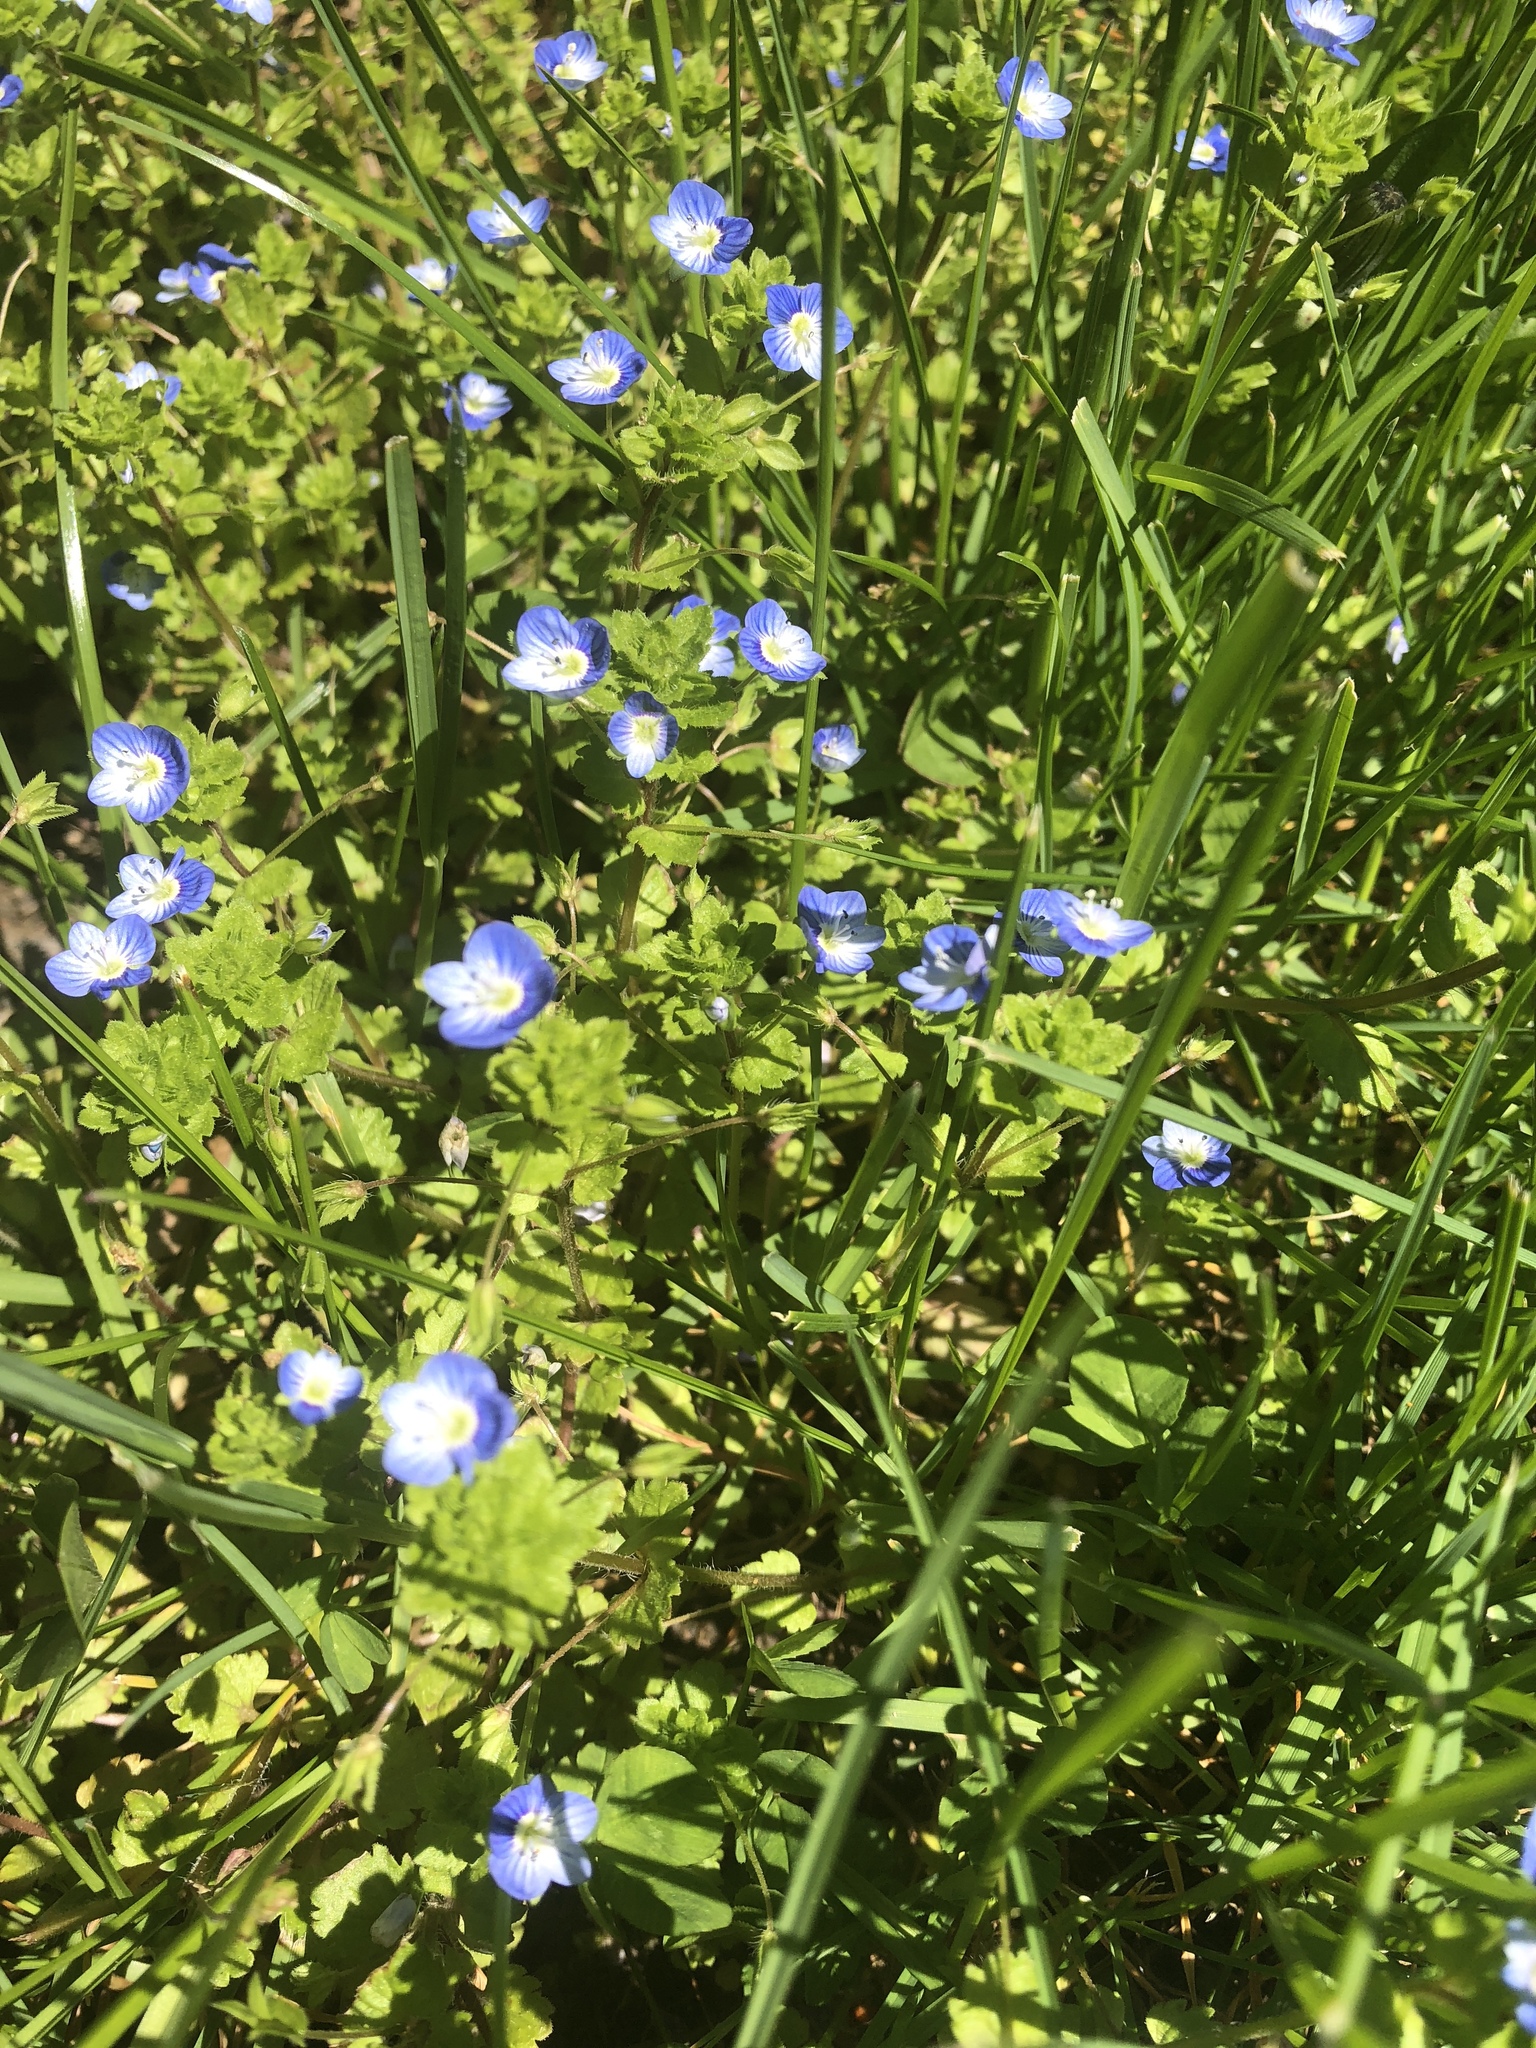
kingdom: Plantae
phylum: Tracheophyta
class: Magnoliopsida
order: Lamiales
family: Plantaginaceae
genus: Veronica
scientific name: Veronica persica
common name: Common field-speedwell
